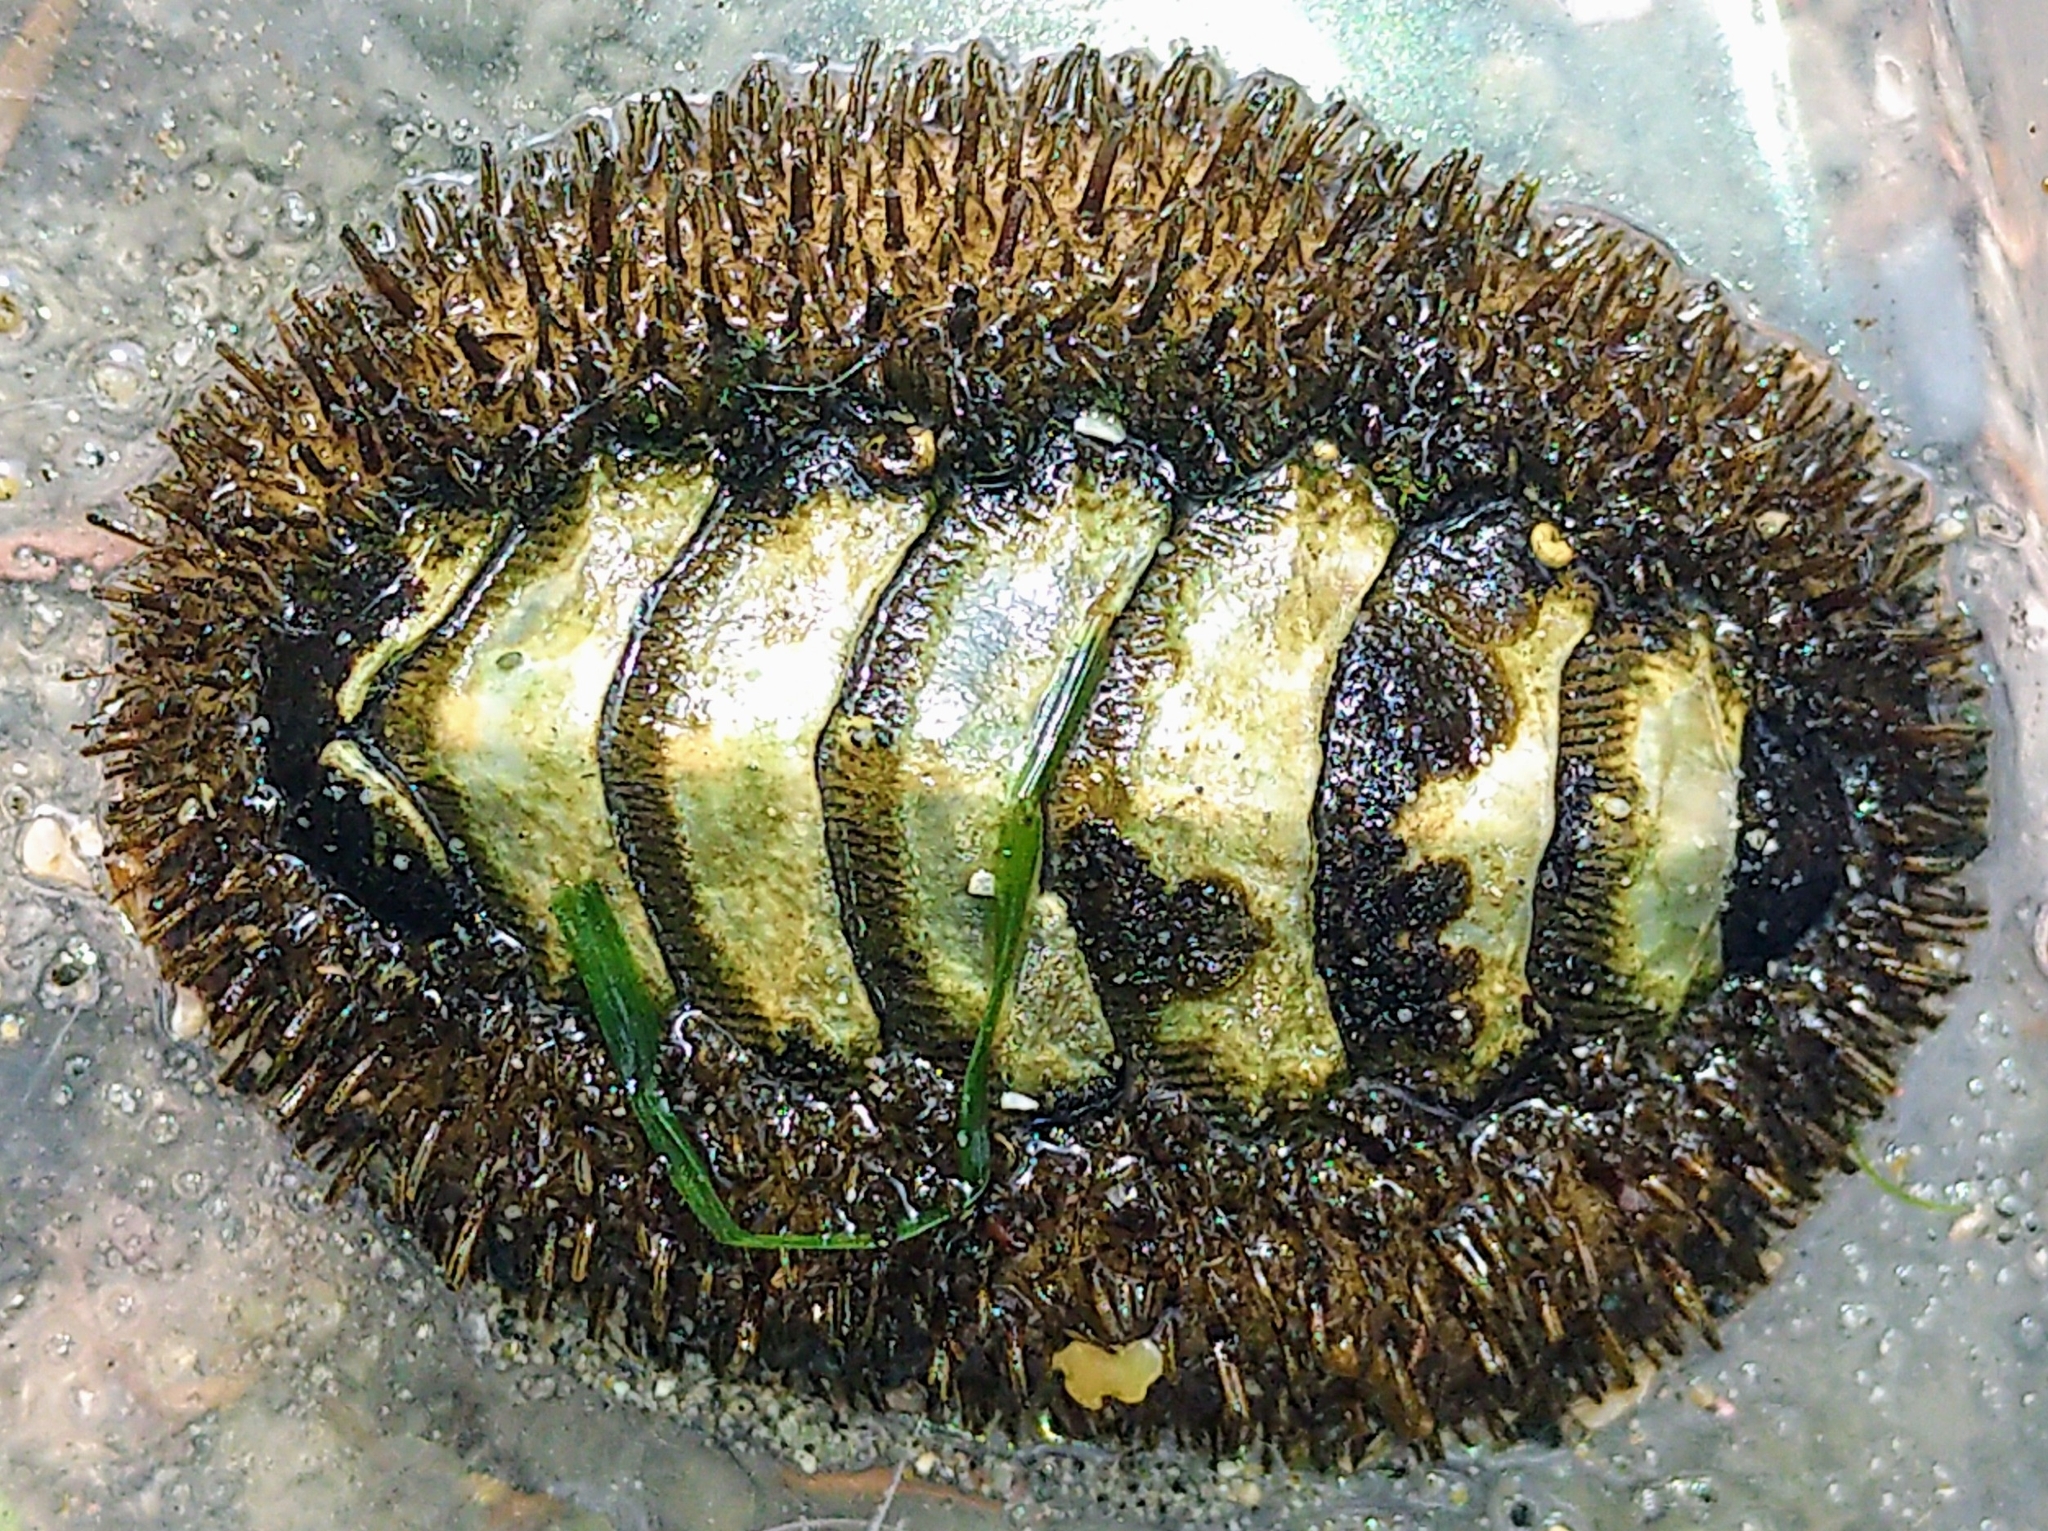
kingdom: Animalia
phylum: Mollusca
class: Polyplacophora
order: Chitonida
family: Mopaliidae
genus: Mopalia
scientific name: Mopalia muscosa
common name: Mossy chiton
